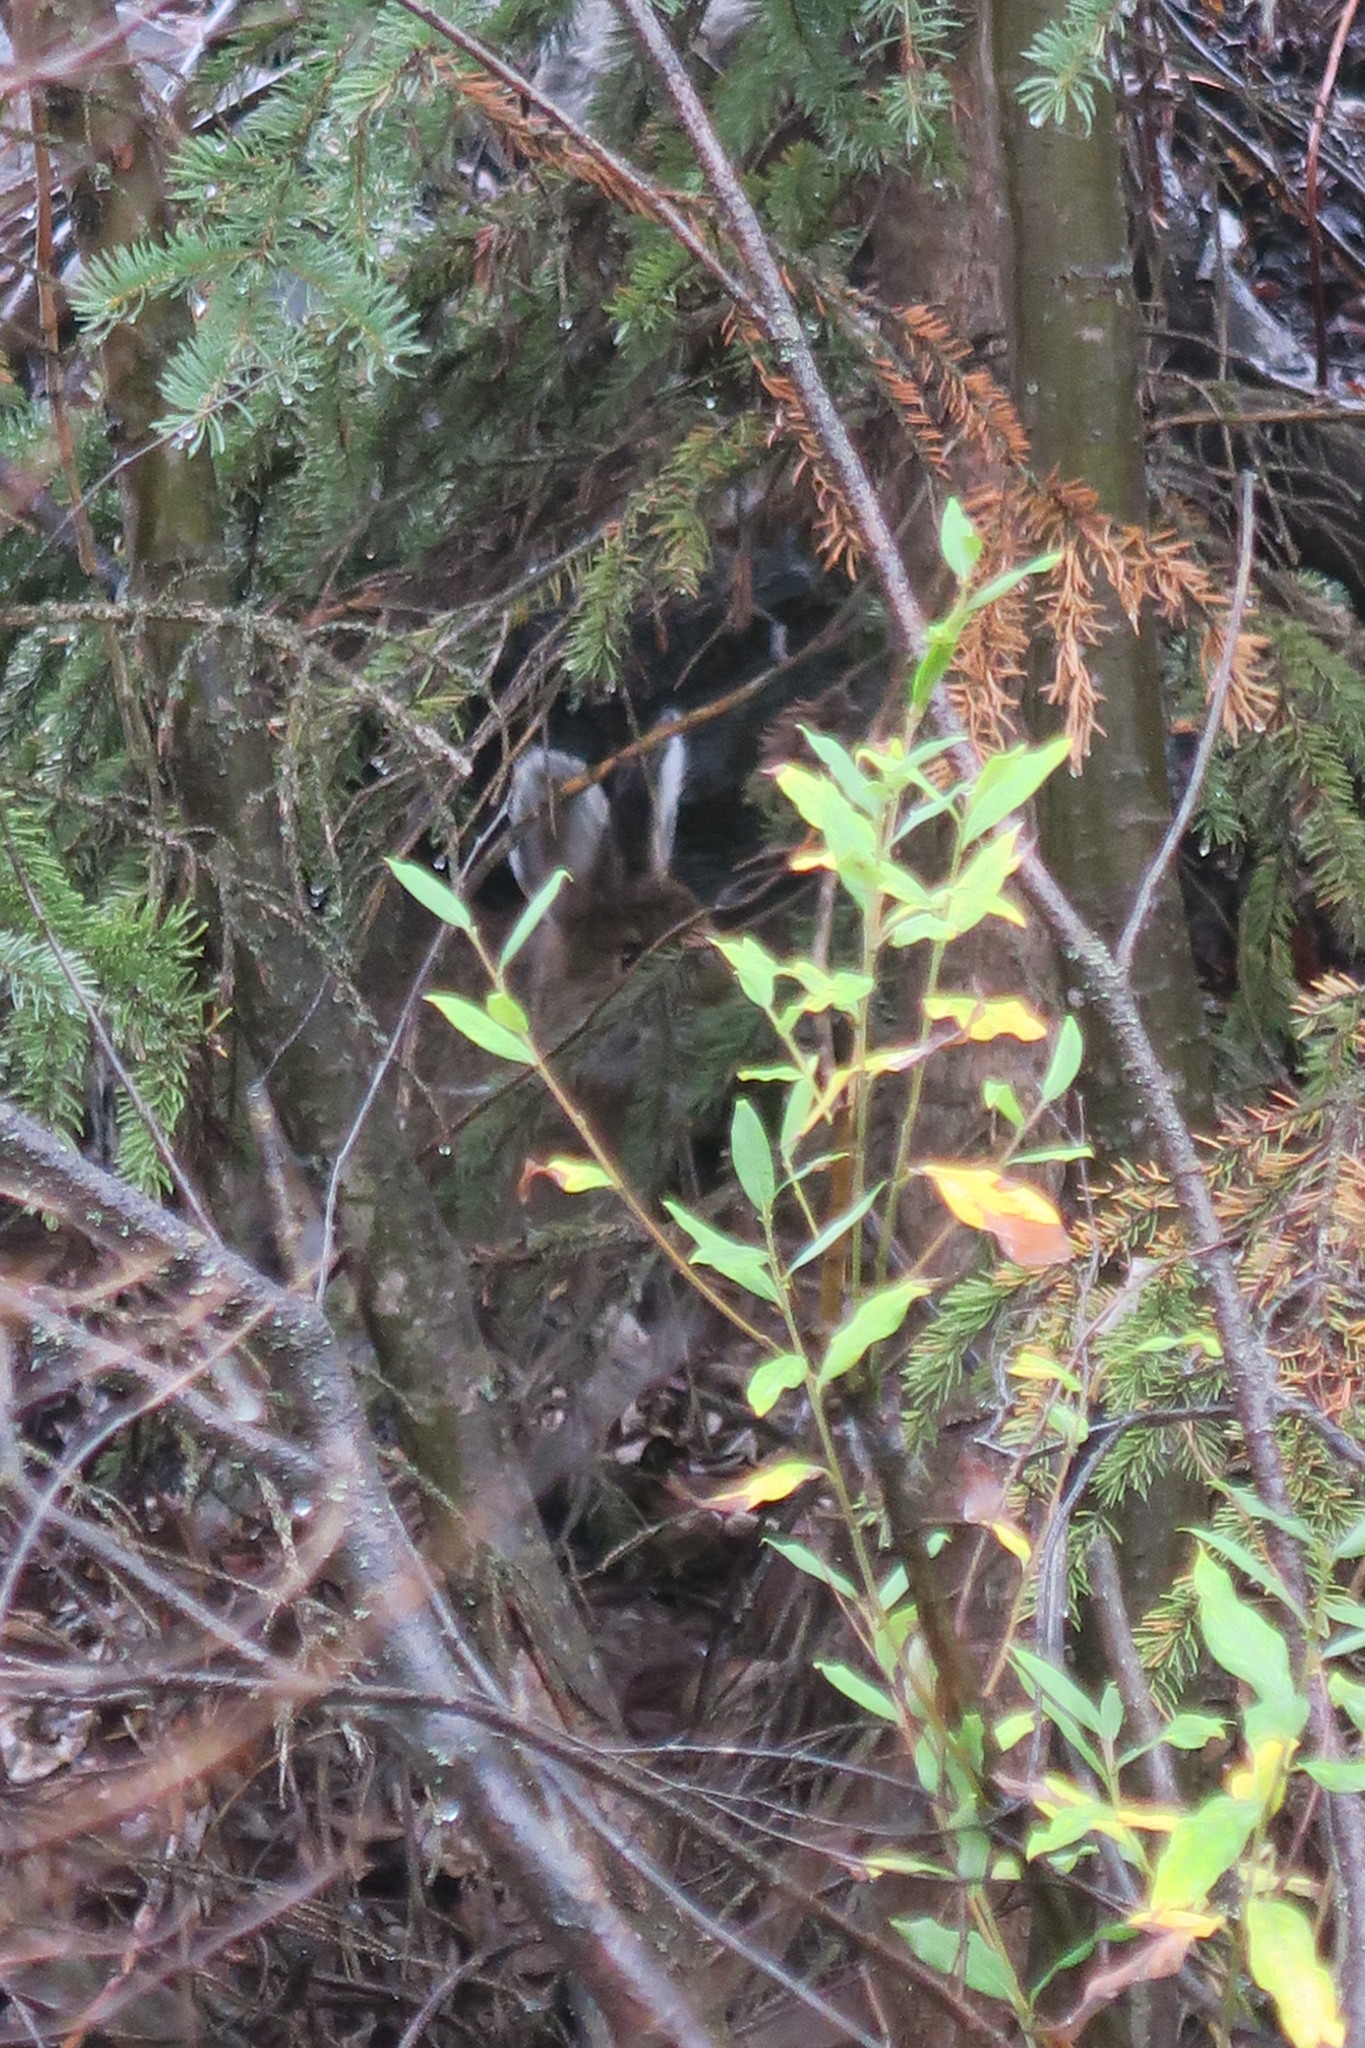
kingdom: Animalia
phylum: Chordata
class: Mammalia
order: Lagomorpha
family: Leporidae
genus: Lepus
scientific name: Lepus americanus
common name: Snowshoe hare
